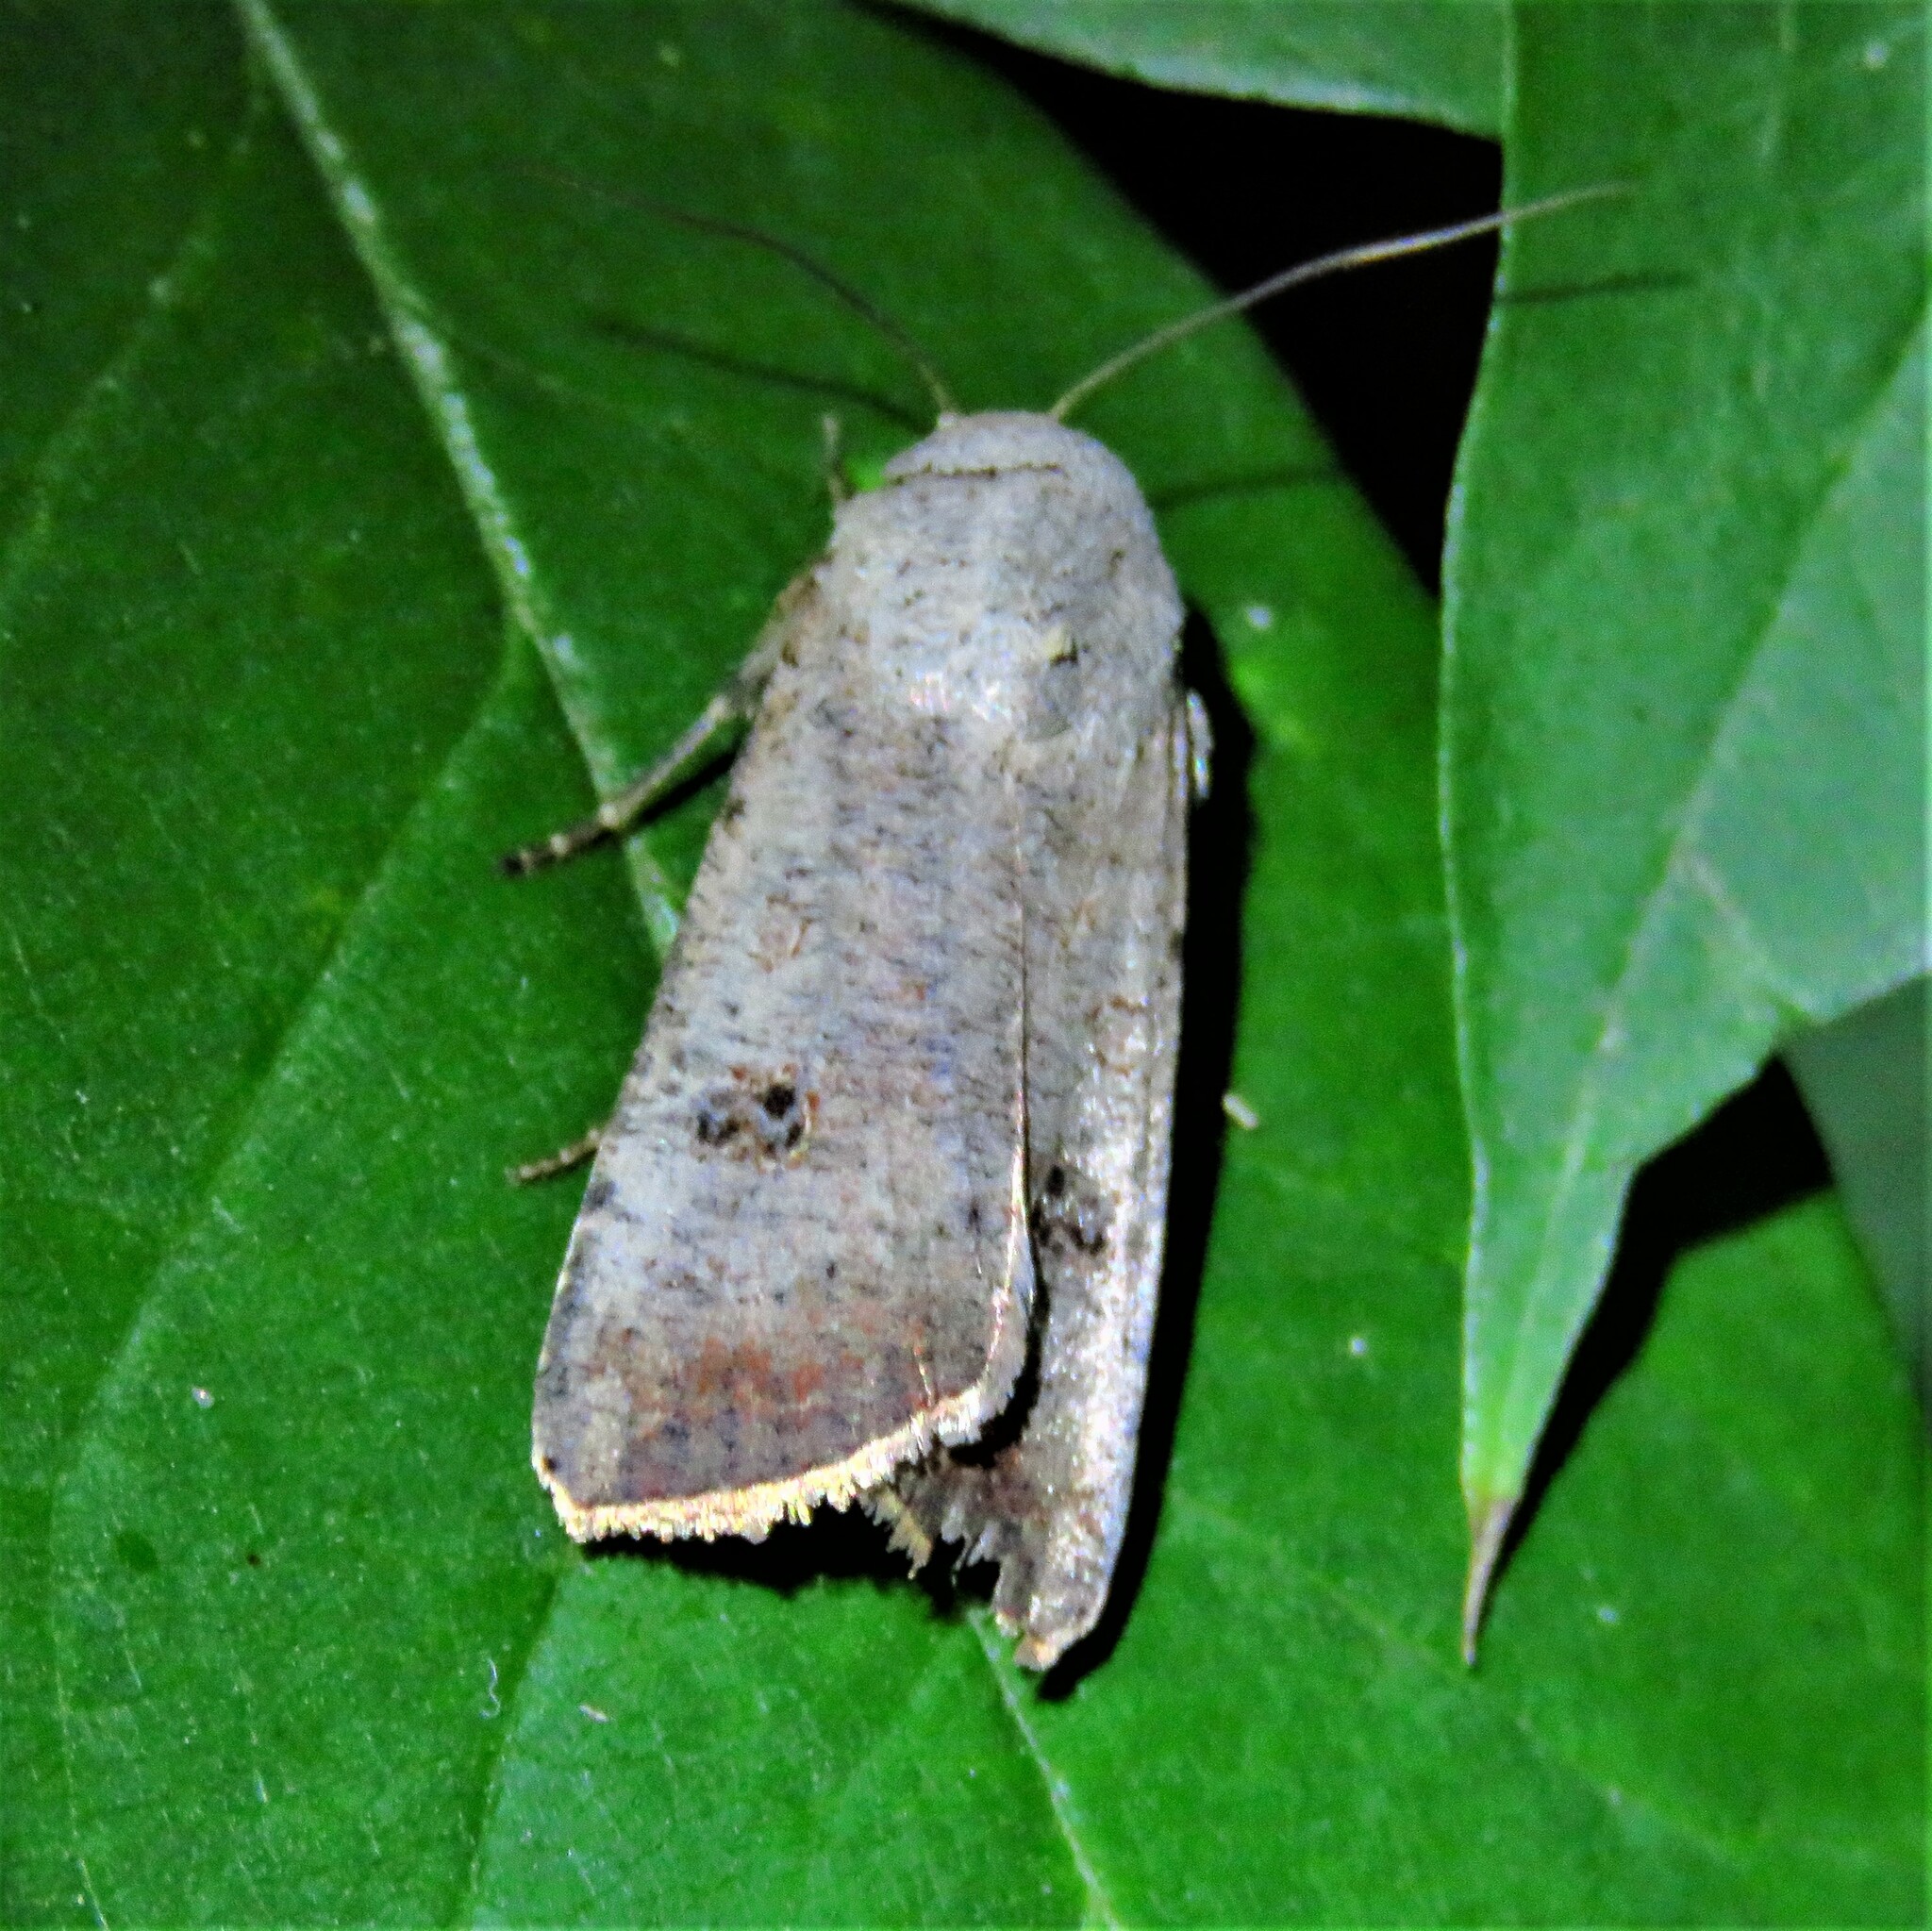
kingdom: Animalia
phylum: Arthropoda
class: Insecta
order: Lepidoptera
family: Noctuidae
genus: Anicla
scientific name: Anicla infecta
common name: Green cutworm
